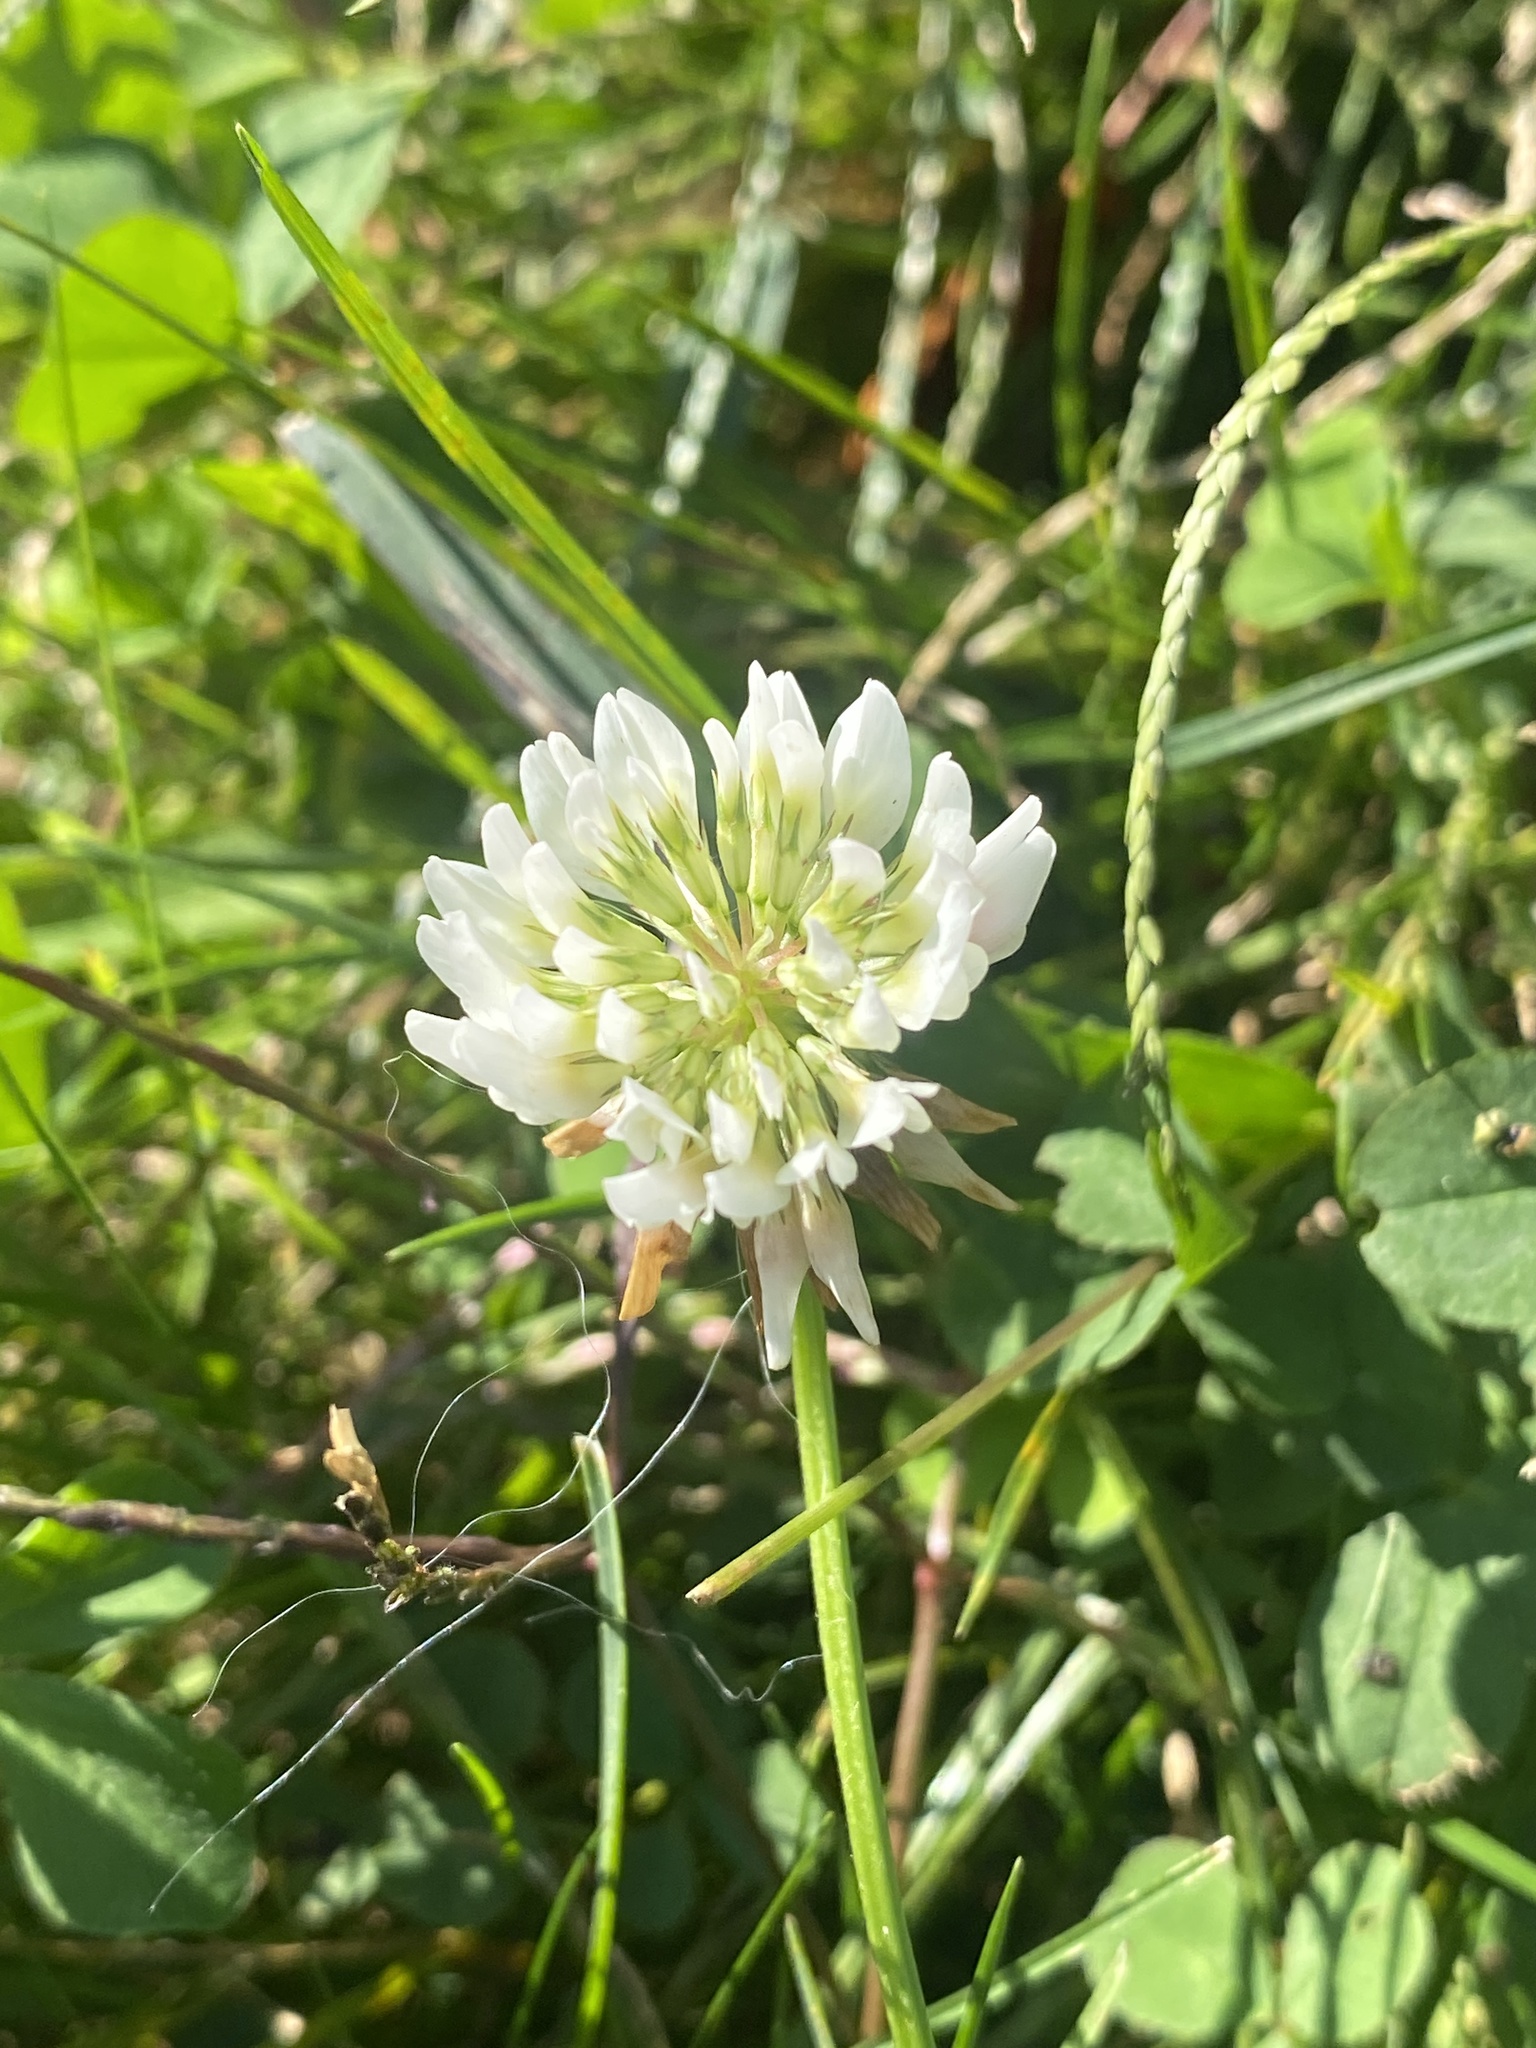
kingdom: Plantae
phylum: Tracheophyta
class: Magnoliopsida
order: Fabales
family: Fabaceae
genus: Trifolium
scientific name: Trifolium repens
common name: White clover
